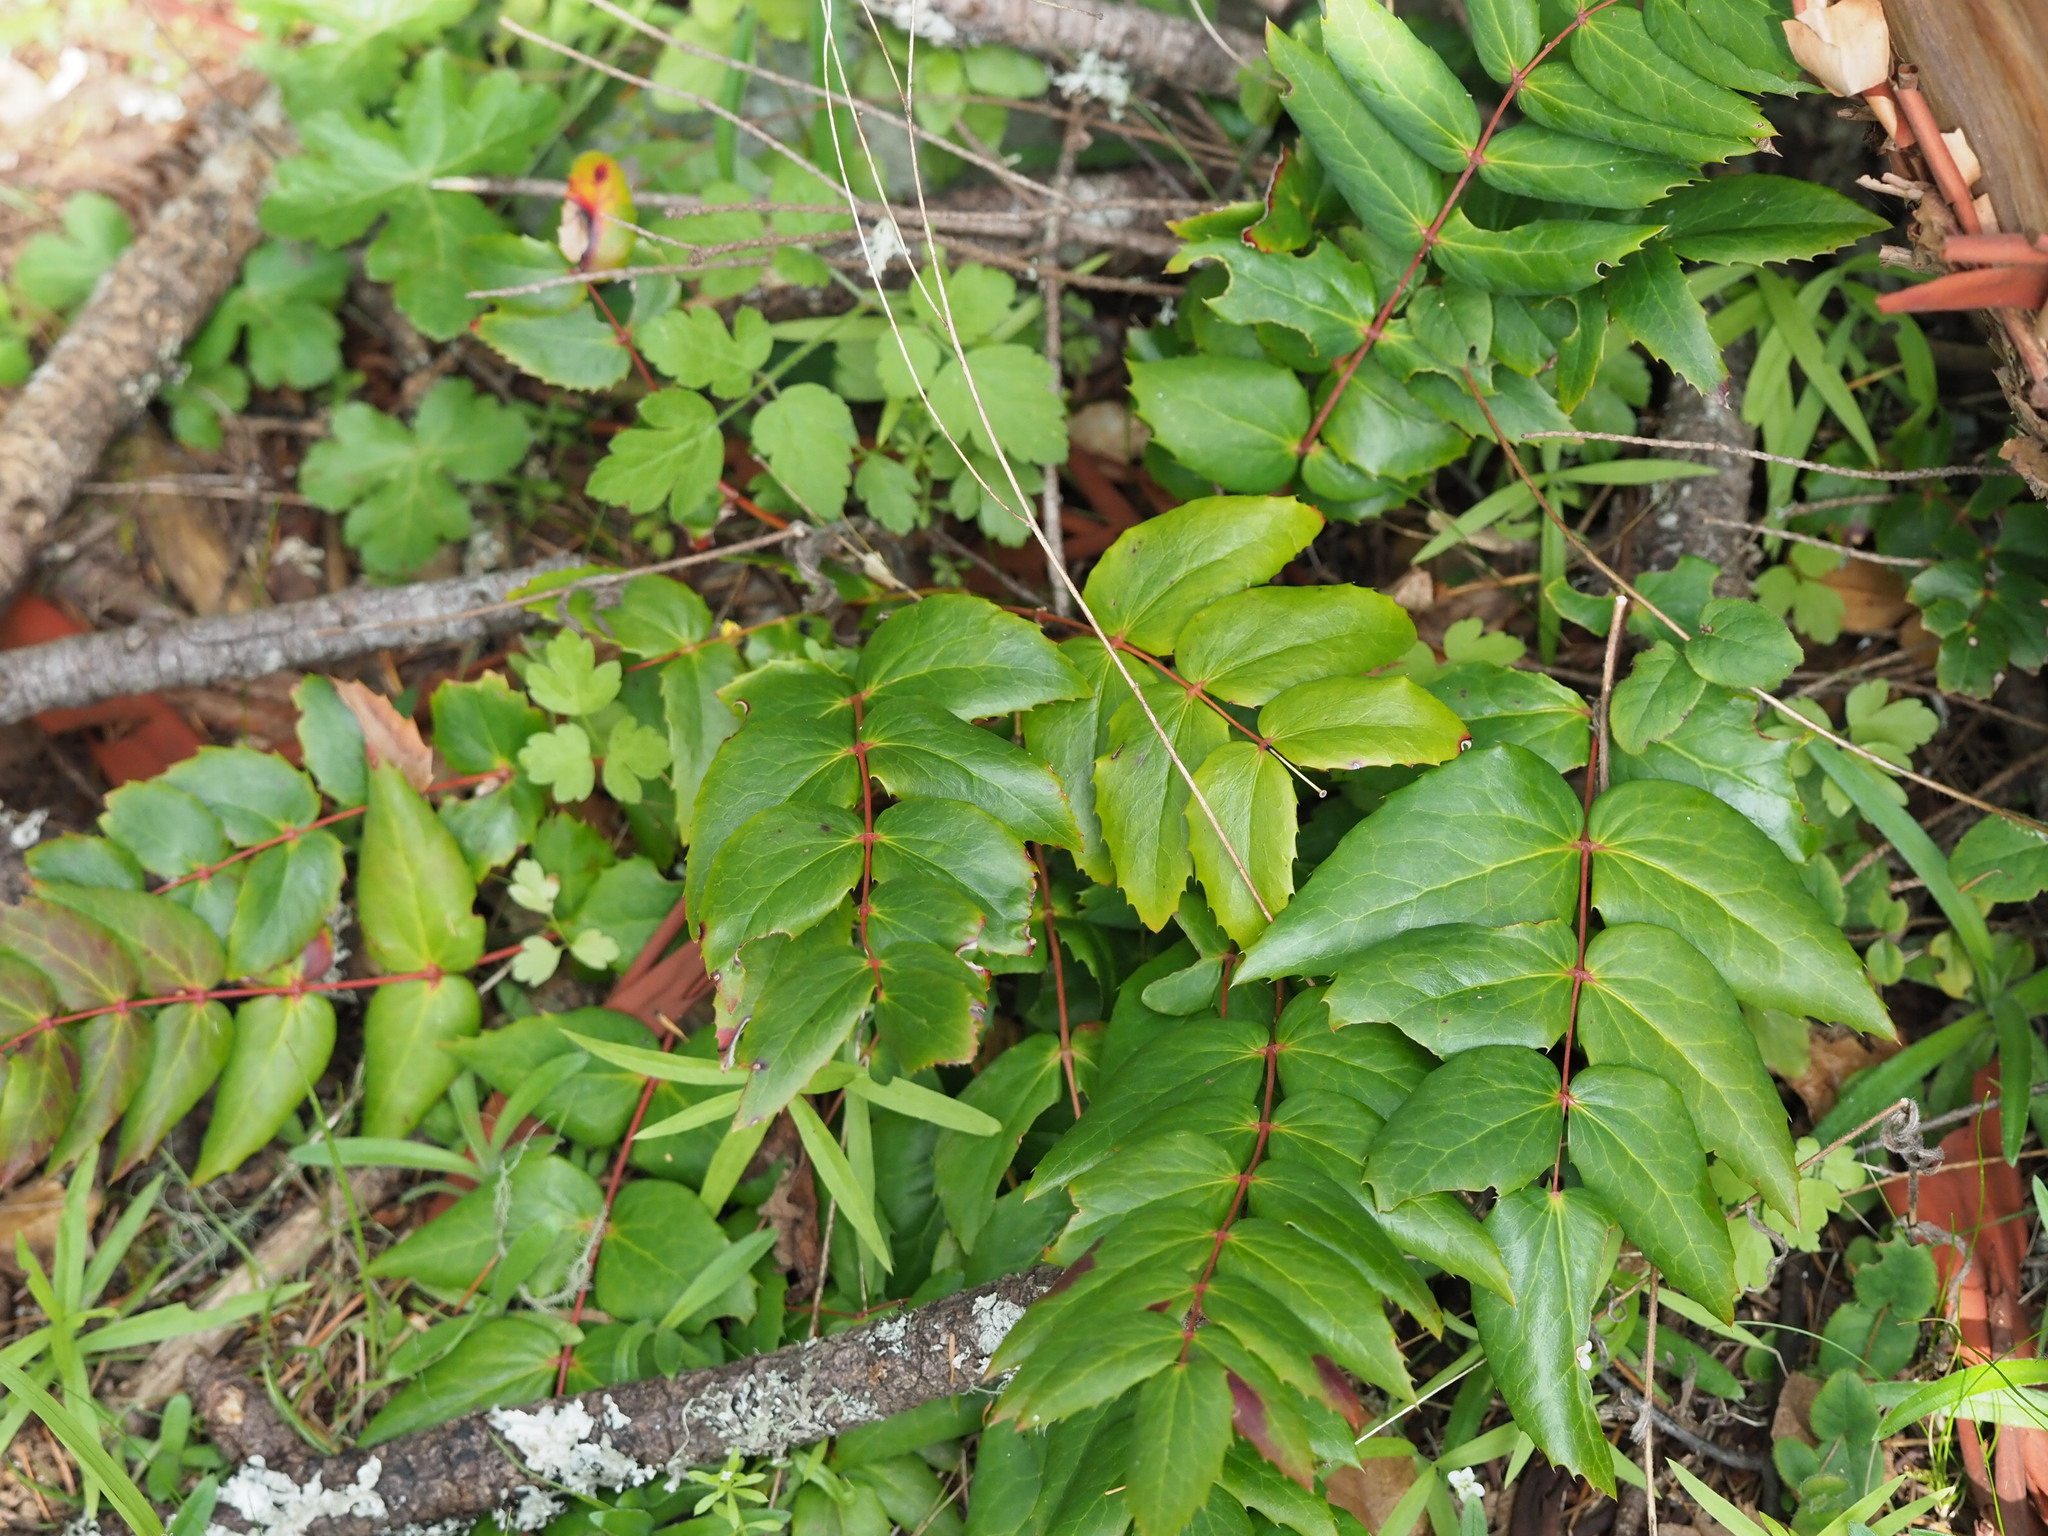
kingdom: Plantae
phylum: Tracheophyta
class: Magnoliopsida
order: Ranunculales
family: Berberidaceae
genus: Mahonia
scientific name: Mahonia nervosa
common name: Cascade oregon-grape
